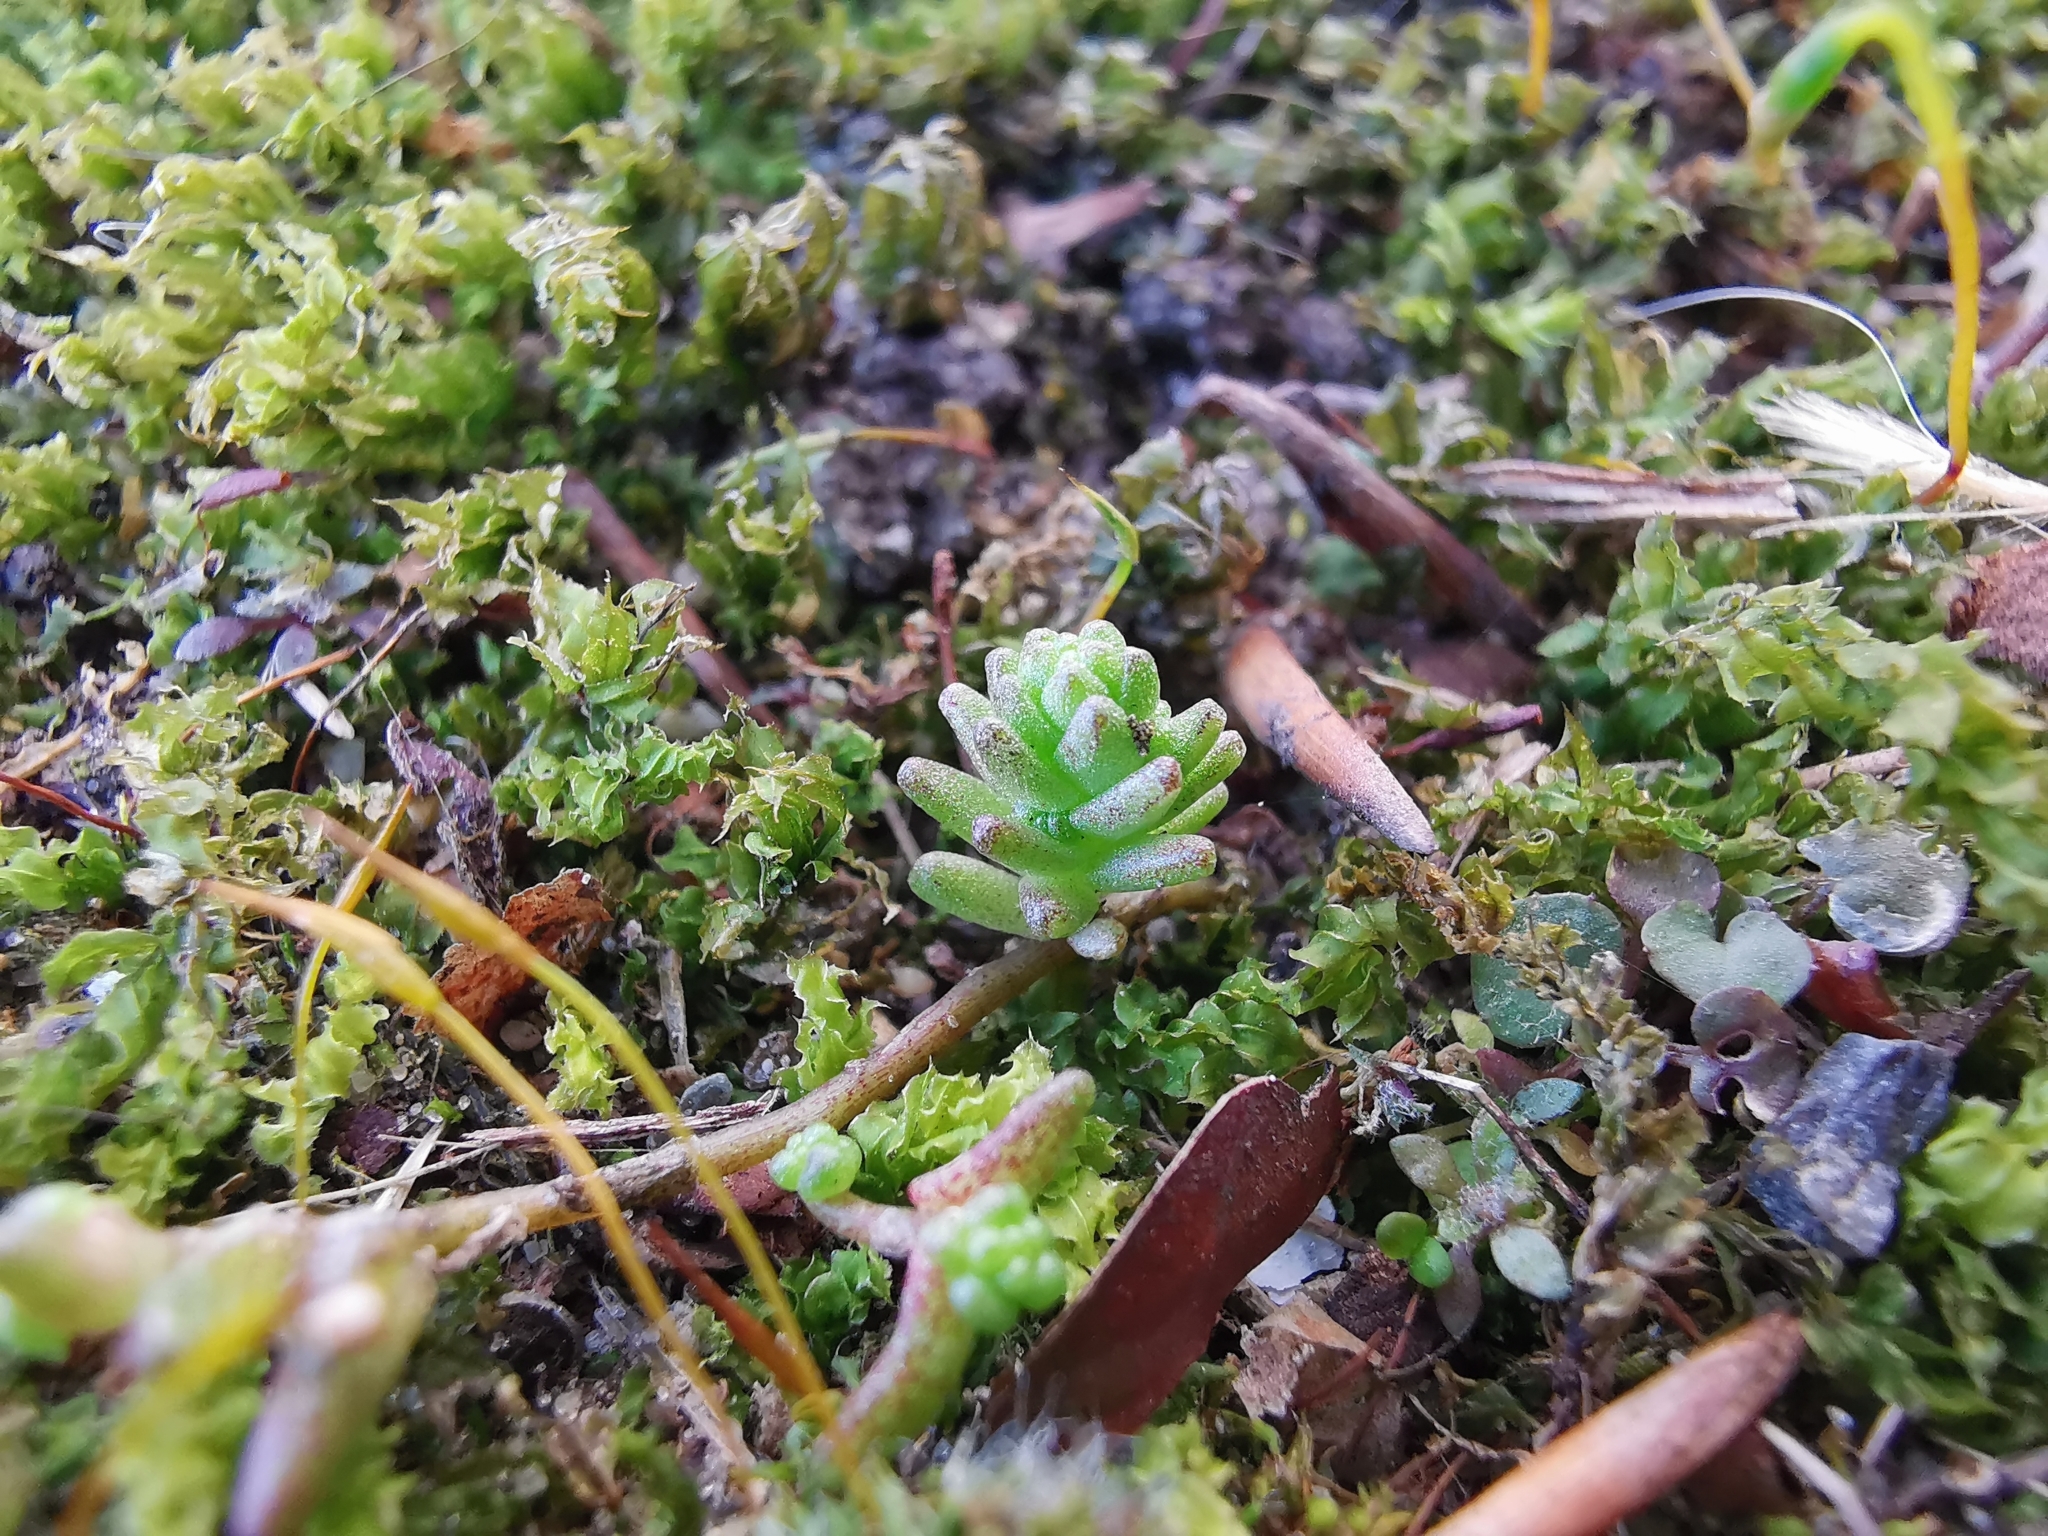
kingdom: Plantae
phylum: Tracheophyta
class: Magnoliopsida
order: Saxifragales
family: Crassulaceae
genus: Sedum
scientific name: Sedum acre
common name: Biting stonecrop
